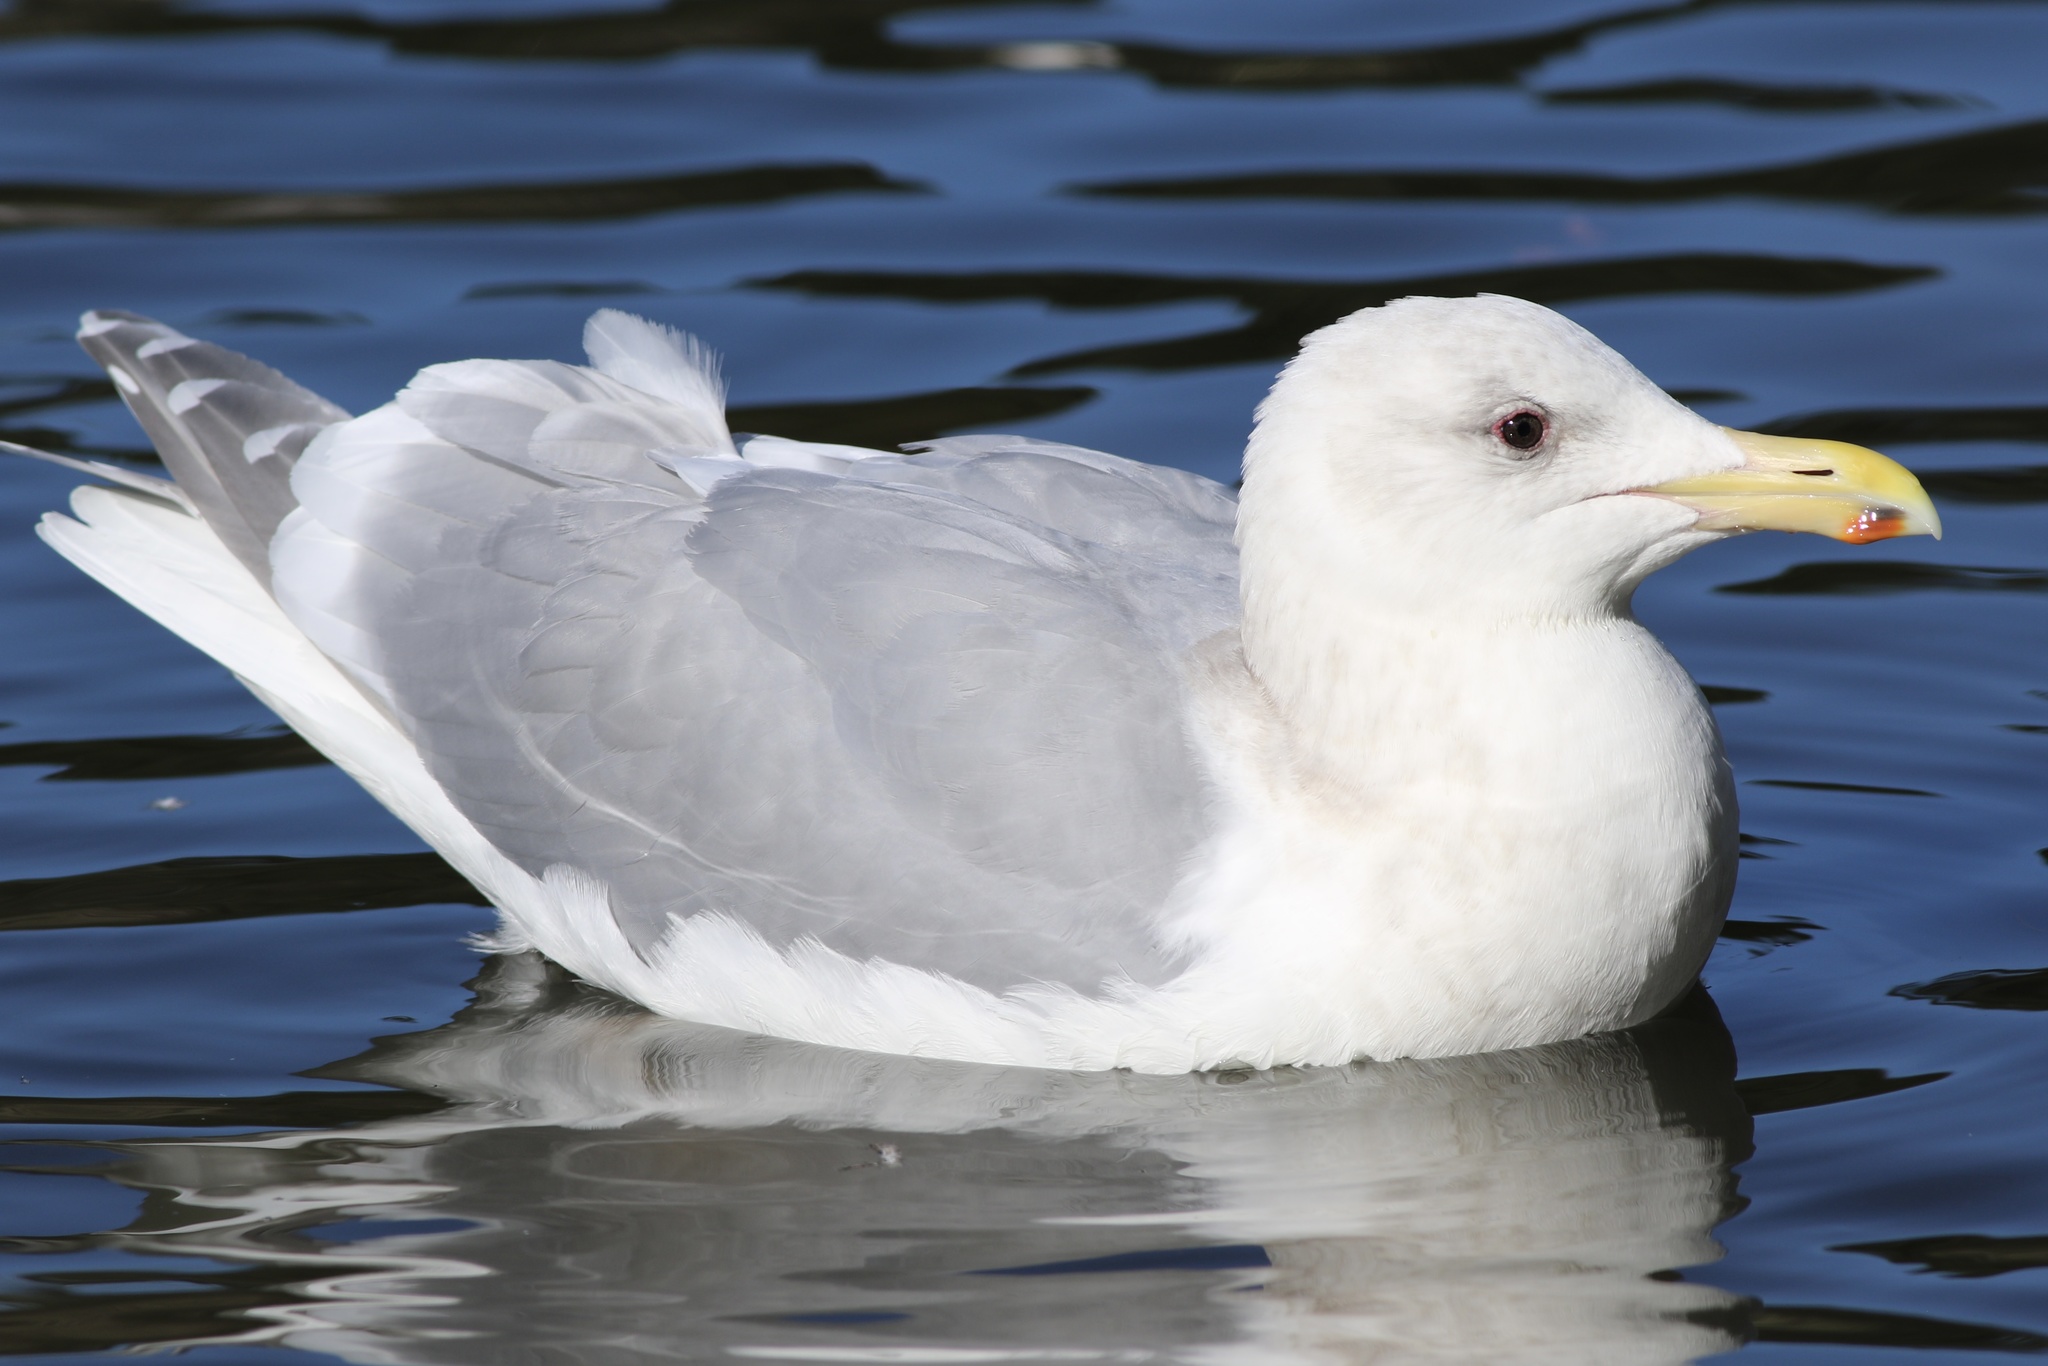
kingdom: Animalia
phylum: Chordata
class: Aves
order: Charadriiformes
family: Laridae
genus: Larus
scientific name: Larus glaucescens
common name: Glaucous-winged gull
